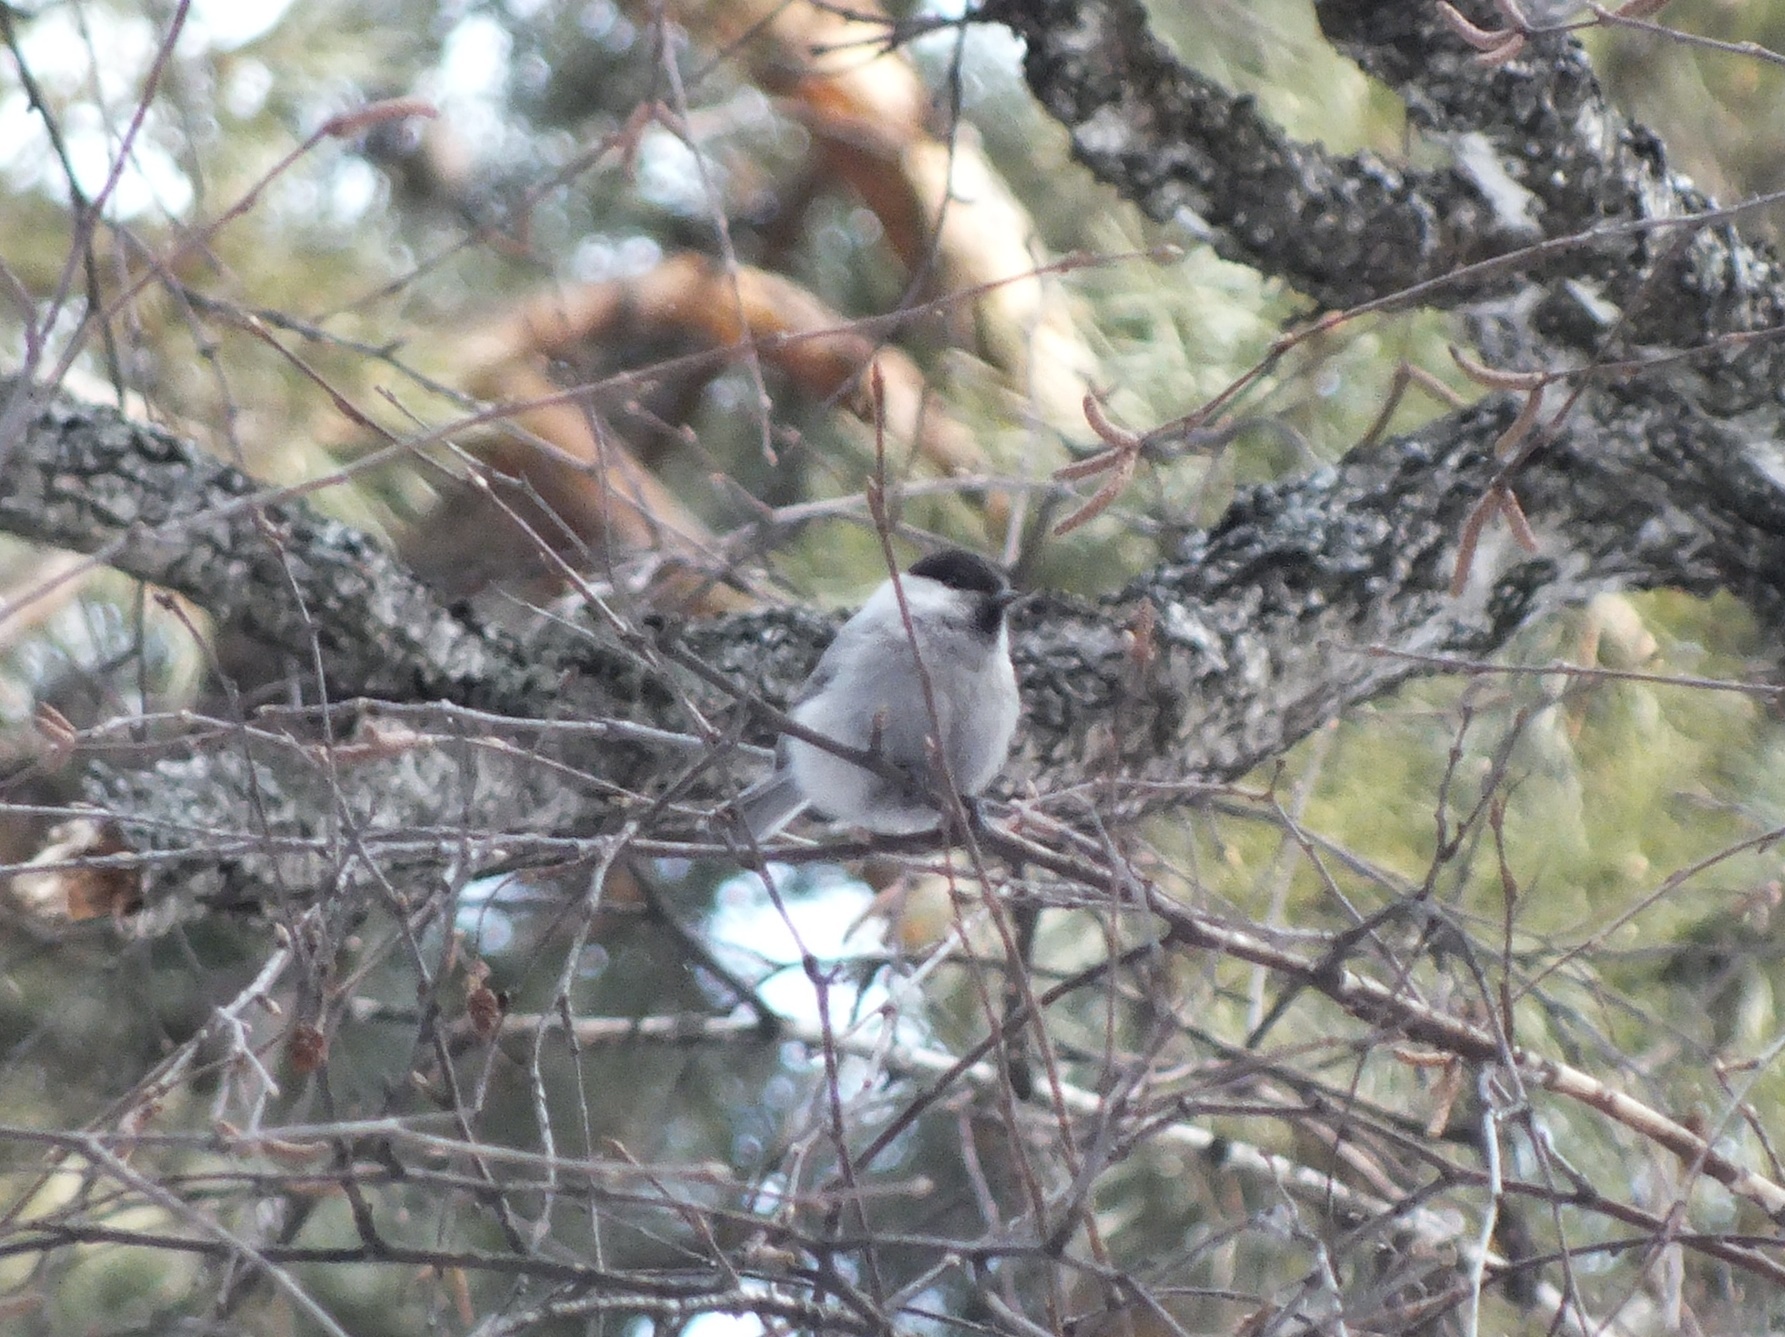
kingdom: Animalia
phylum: Chordata
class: Aves
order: Passeriformes
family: Paridae
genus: Poecile
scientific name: Poecile
